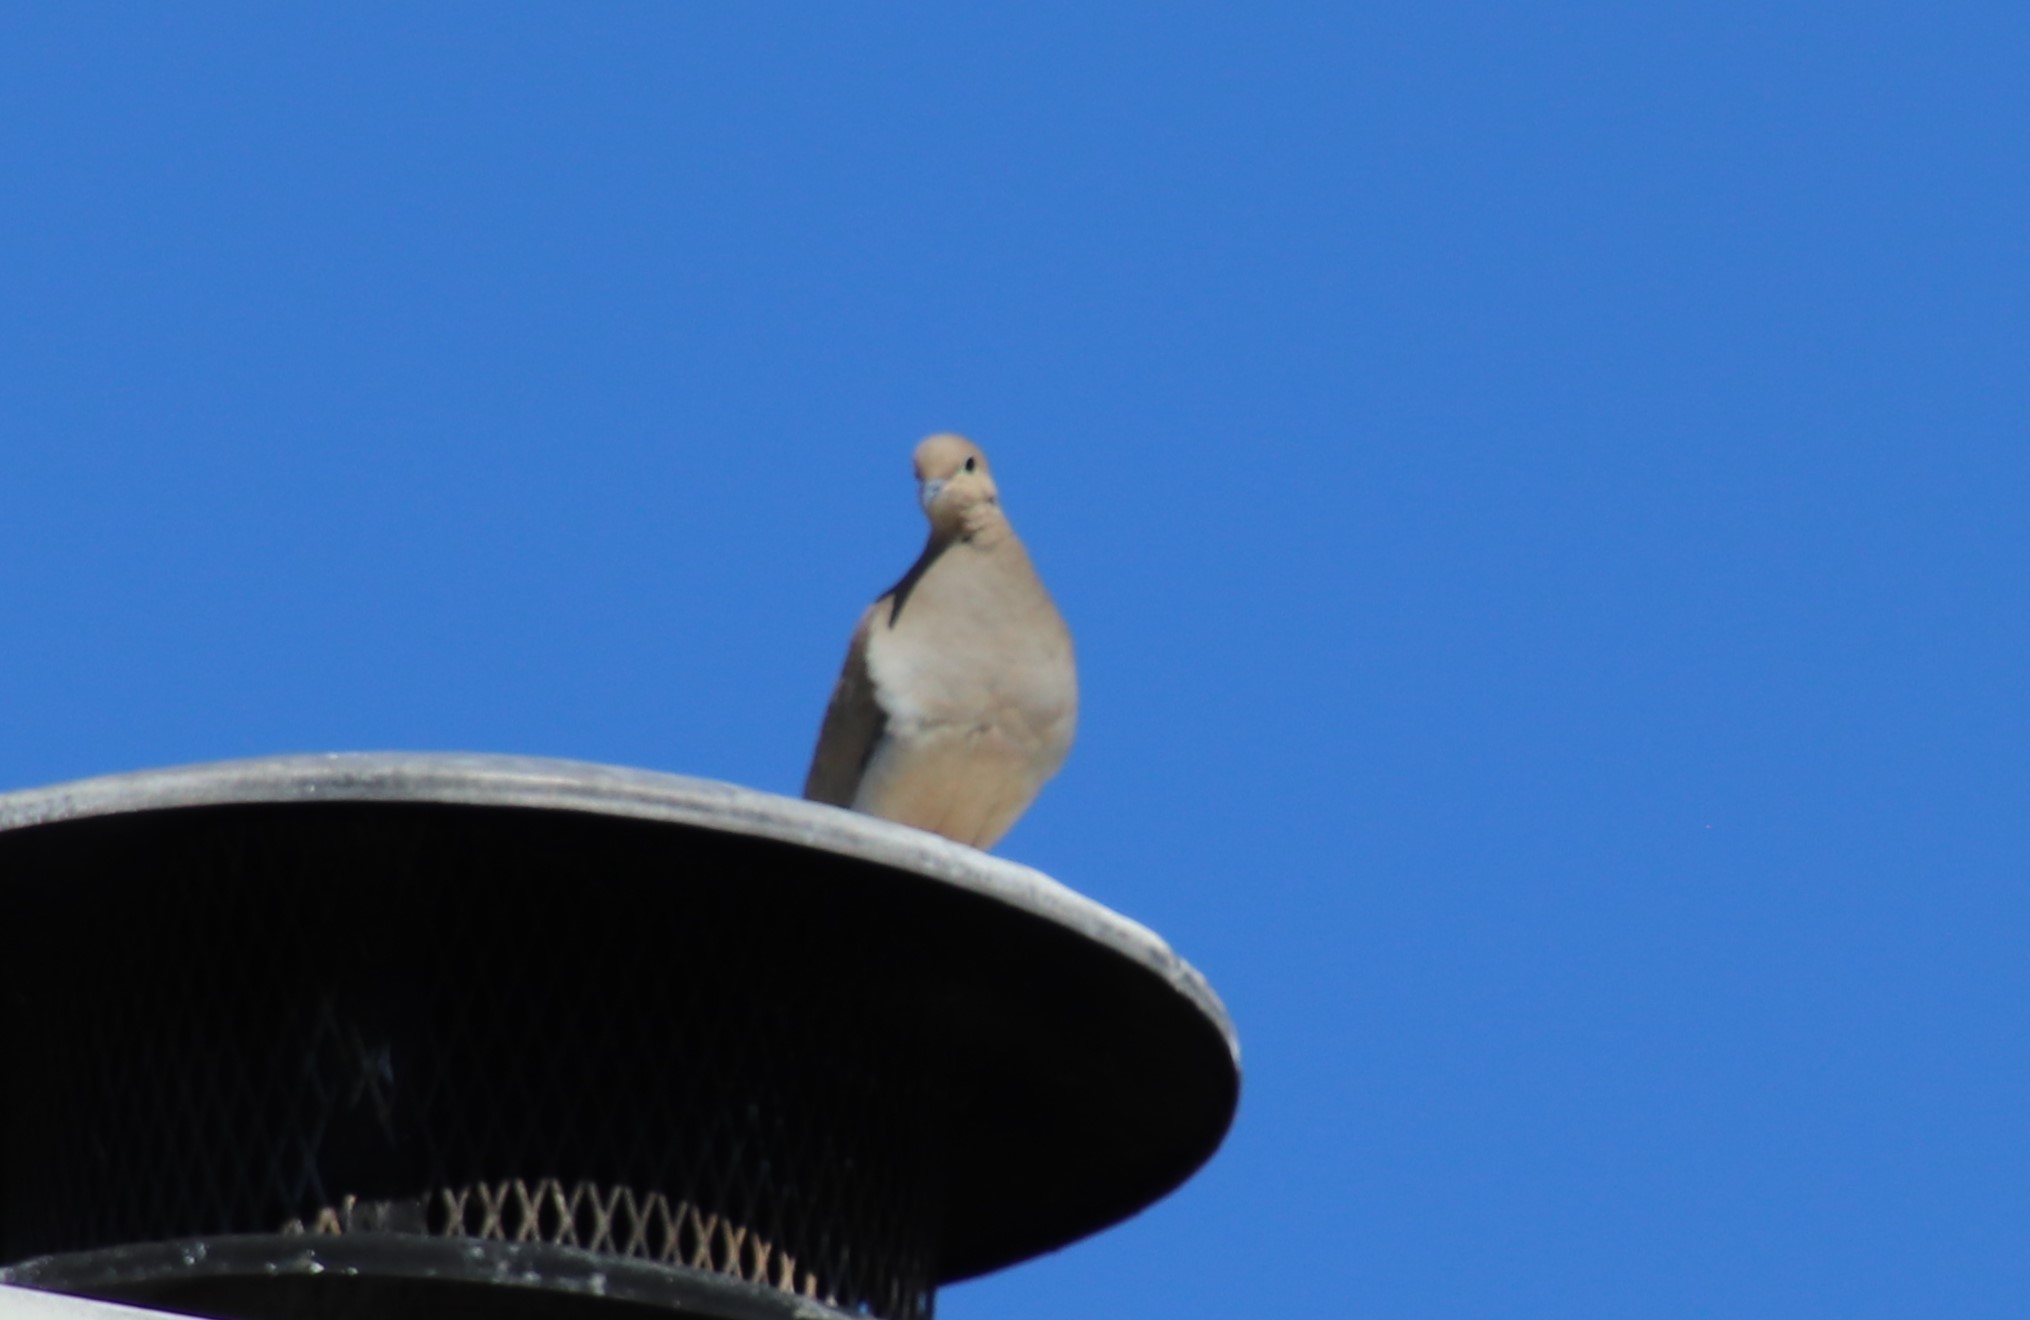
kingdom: Animalia
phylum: Chordata
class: Aves
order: Columbiformes
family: Columbidae
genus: Zenaida
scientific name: Zenaida macroura
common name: Mourning dove
